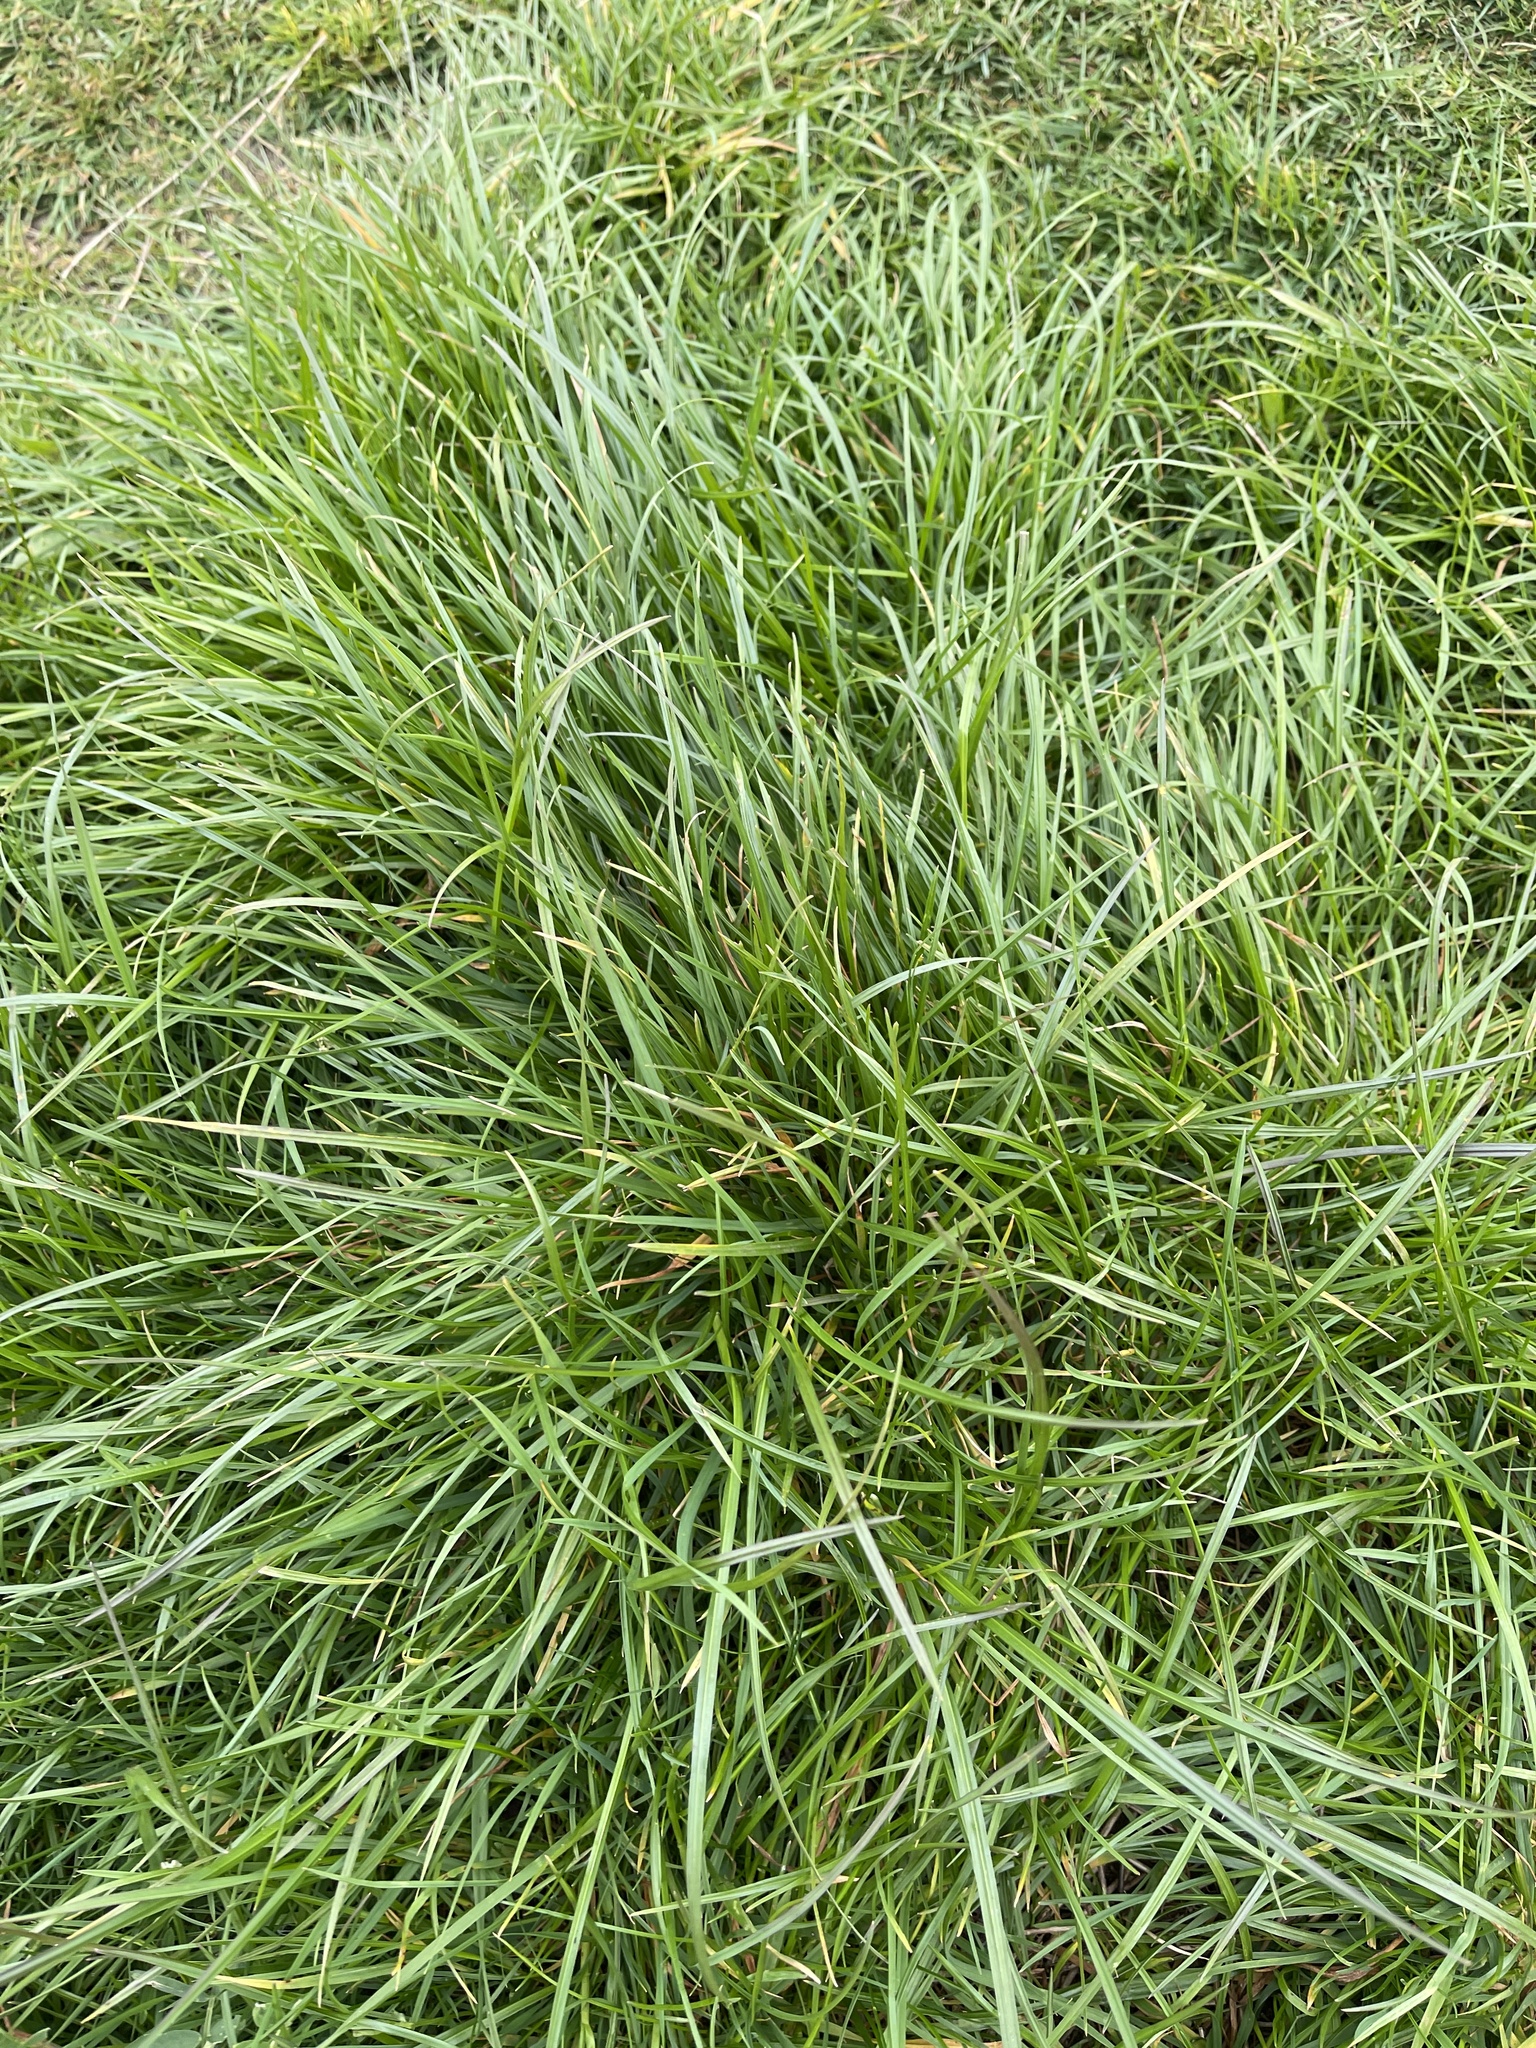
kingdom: Plantae
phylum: Tracheophyta
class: Liliopsida
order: Poales
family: Poaceae
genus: Lolium
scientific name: Lolium perenne
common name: Perennial ryegrass
